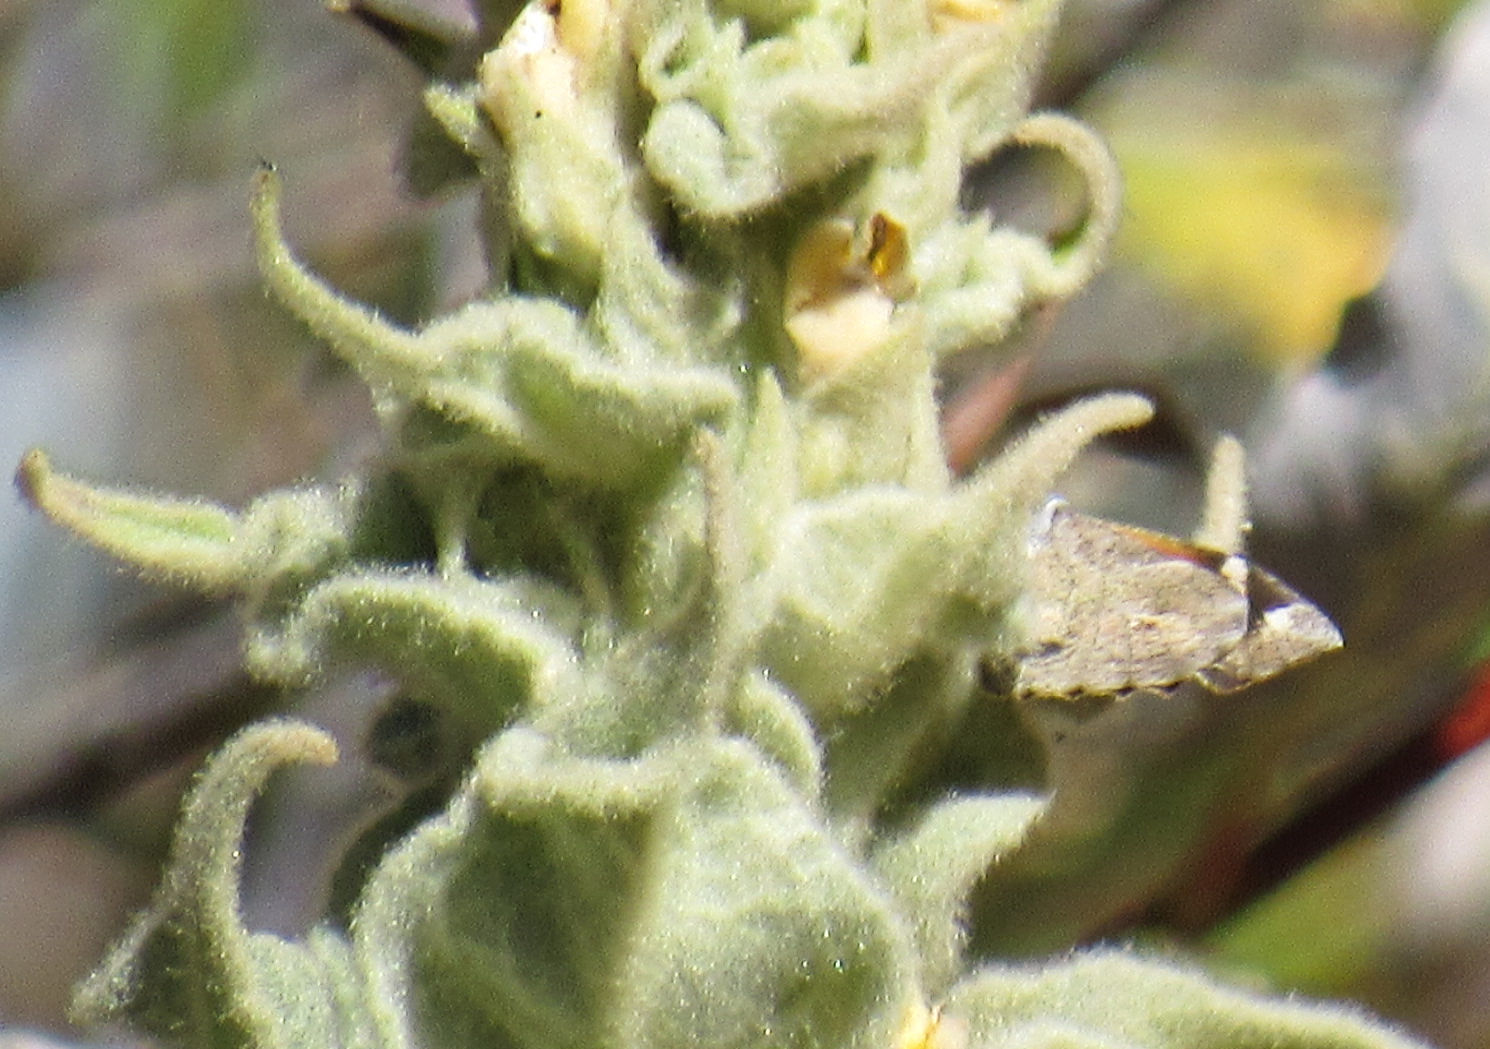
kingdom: Animalia
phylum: Arthropoda
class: Insecta
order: Lepidoptera
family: Nymphalidae
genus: Libytheana
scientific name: Libytheana carinenta
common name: American snout
